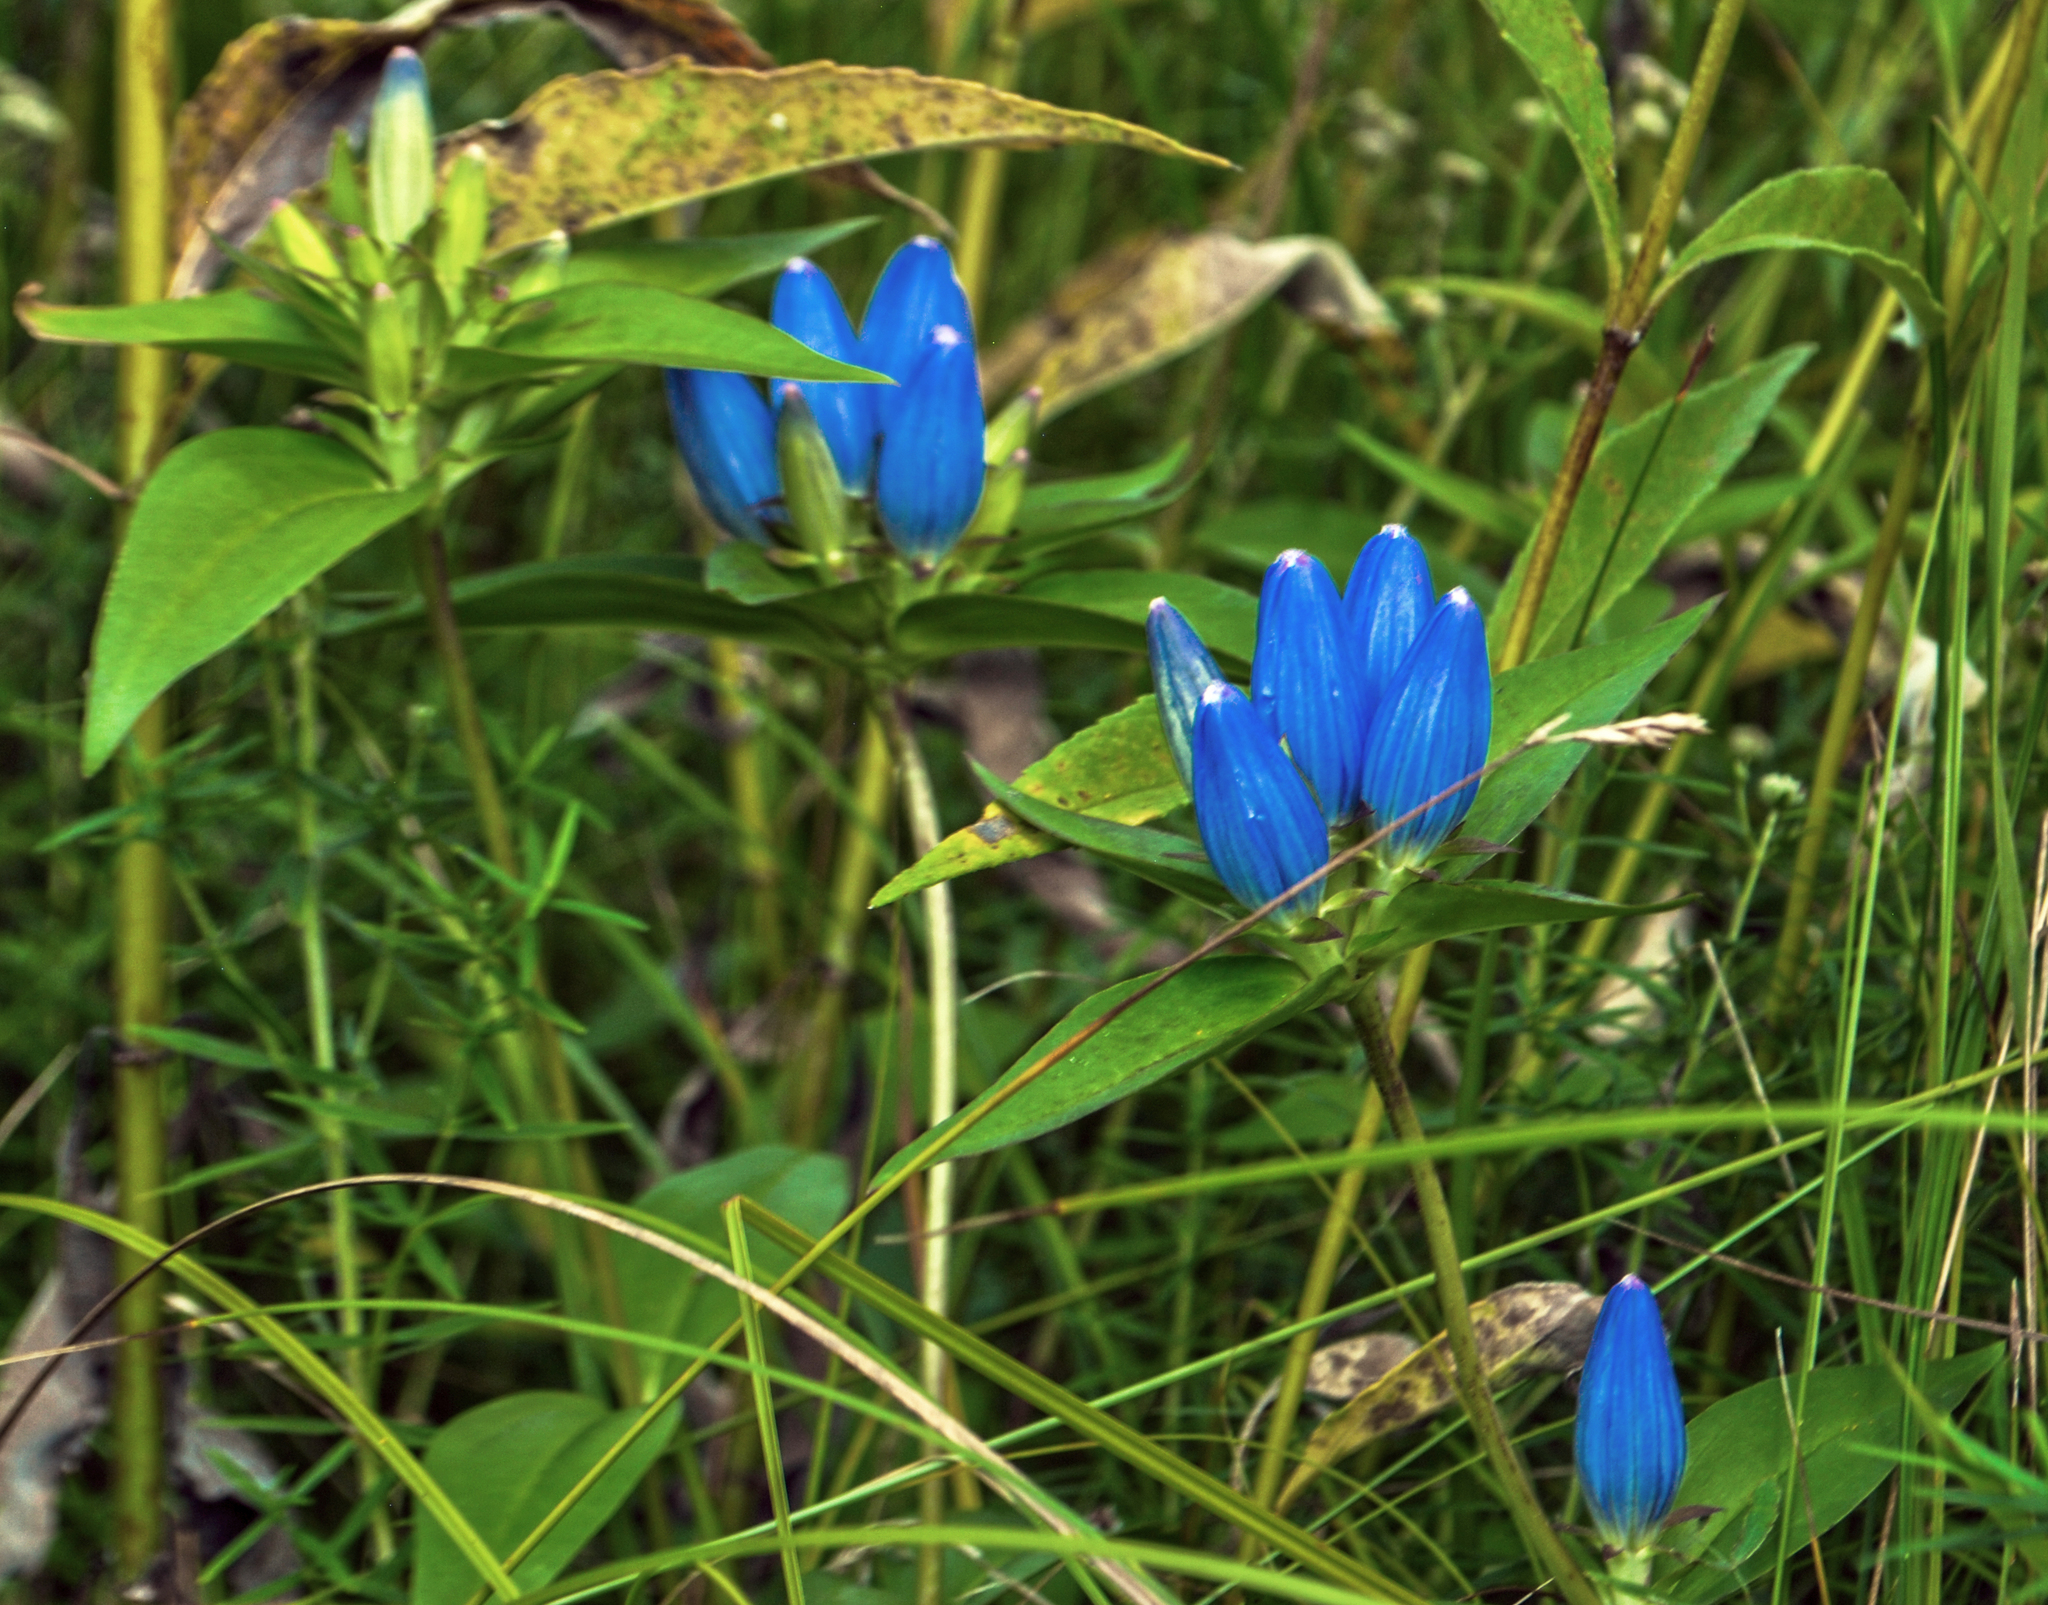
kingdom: Plantae
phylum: Tracheophyta
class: Magnoliopsida
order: Gentianales
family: Gentianaceae
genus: Gentiana
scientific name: Gentiana andrewsii
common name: Bottle gentian
